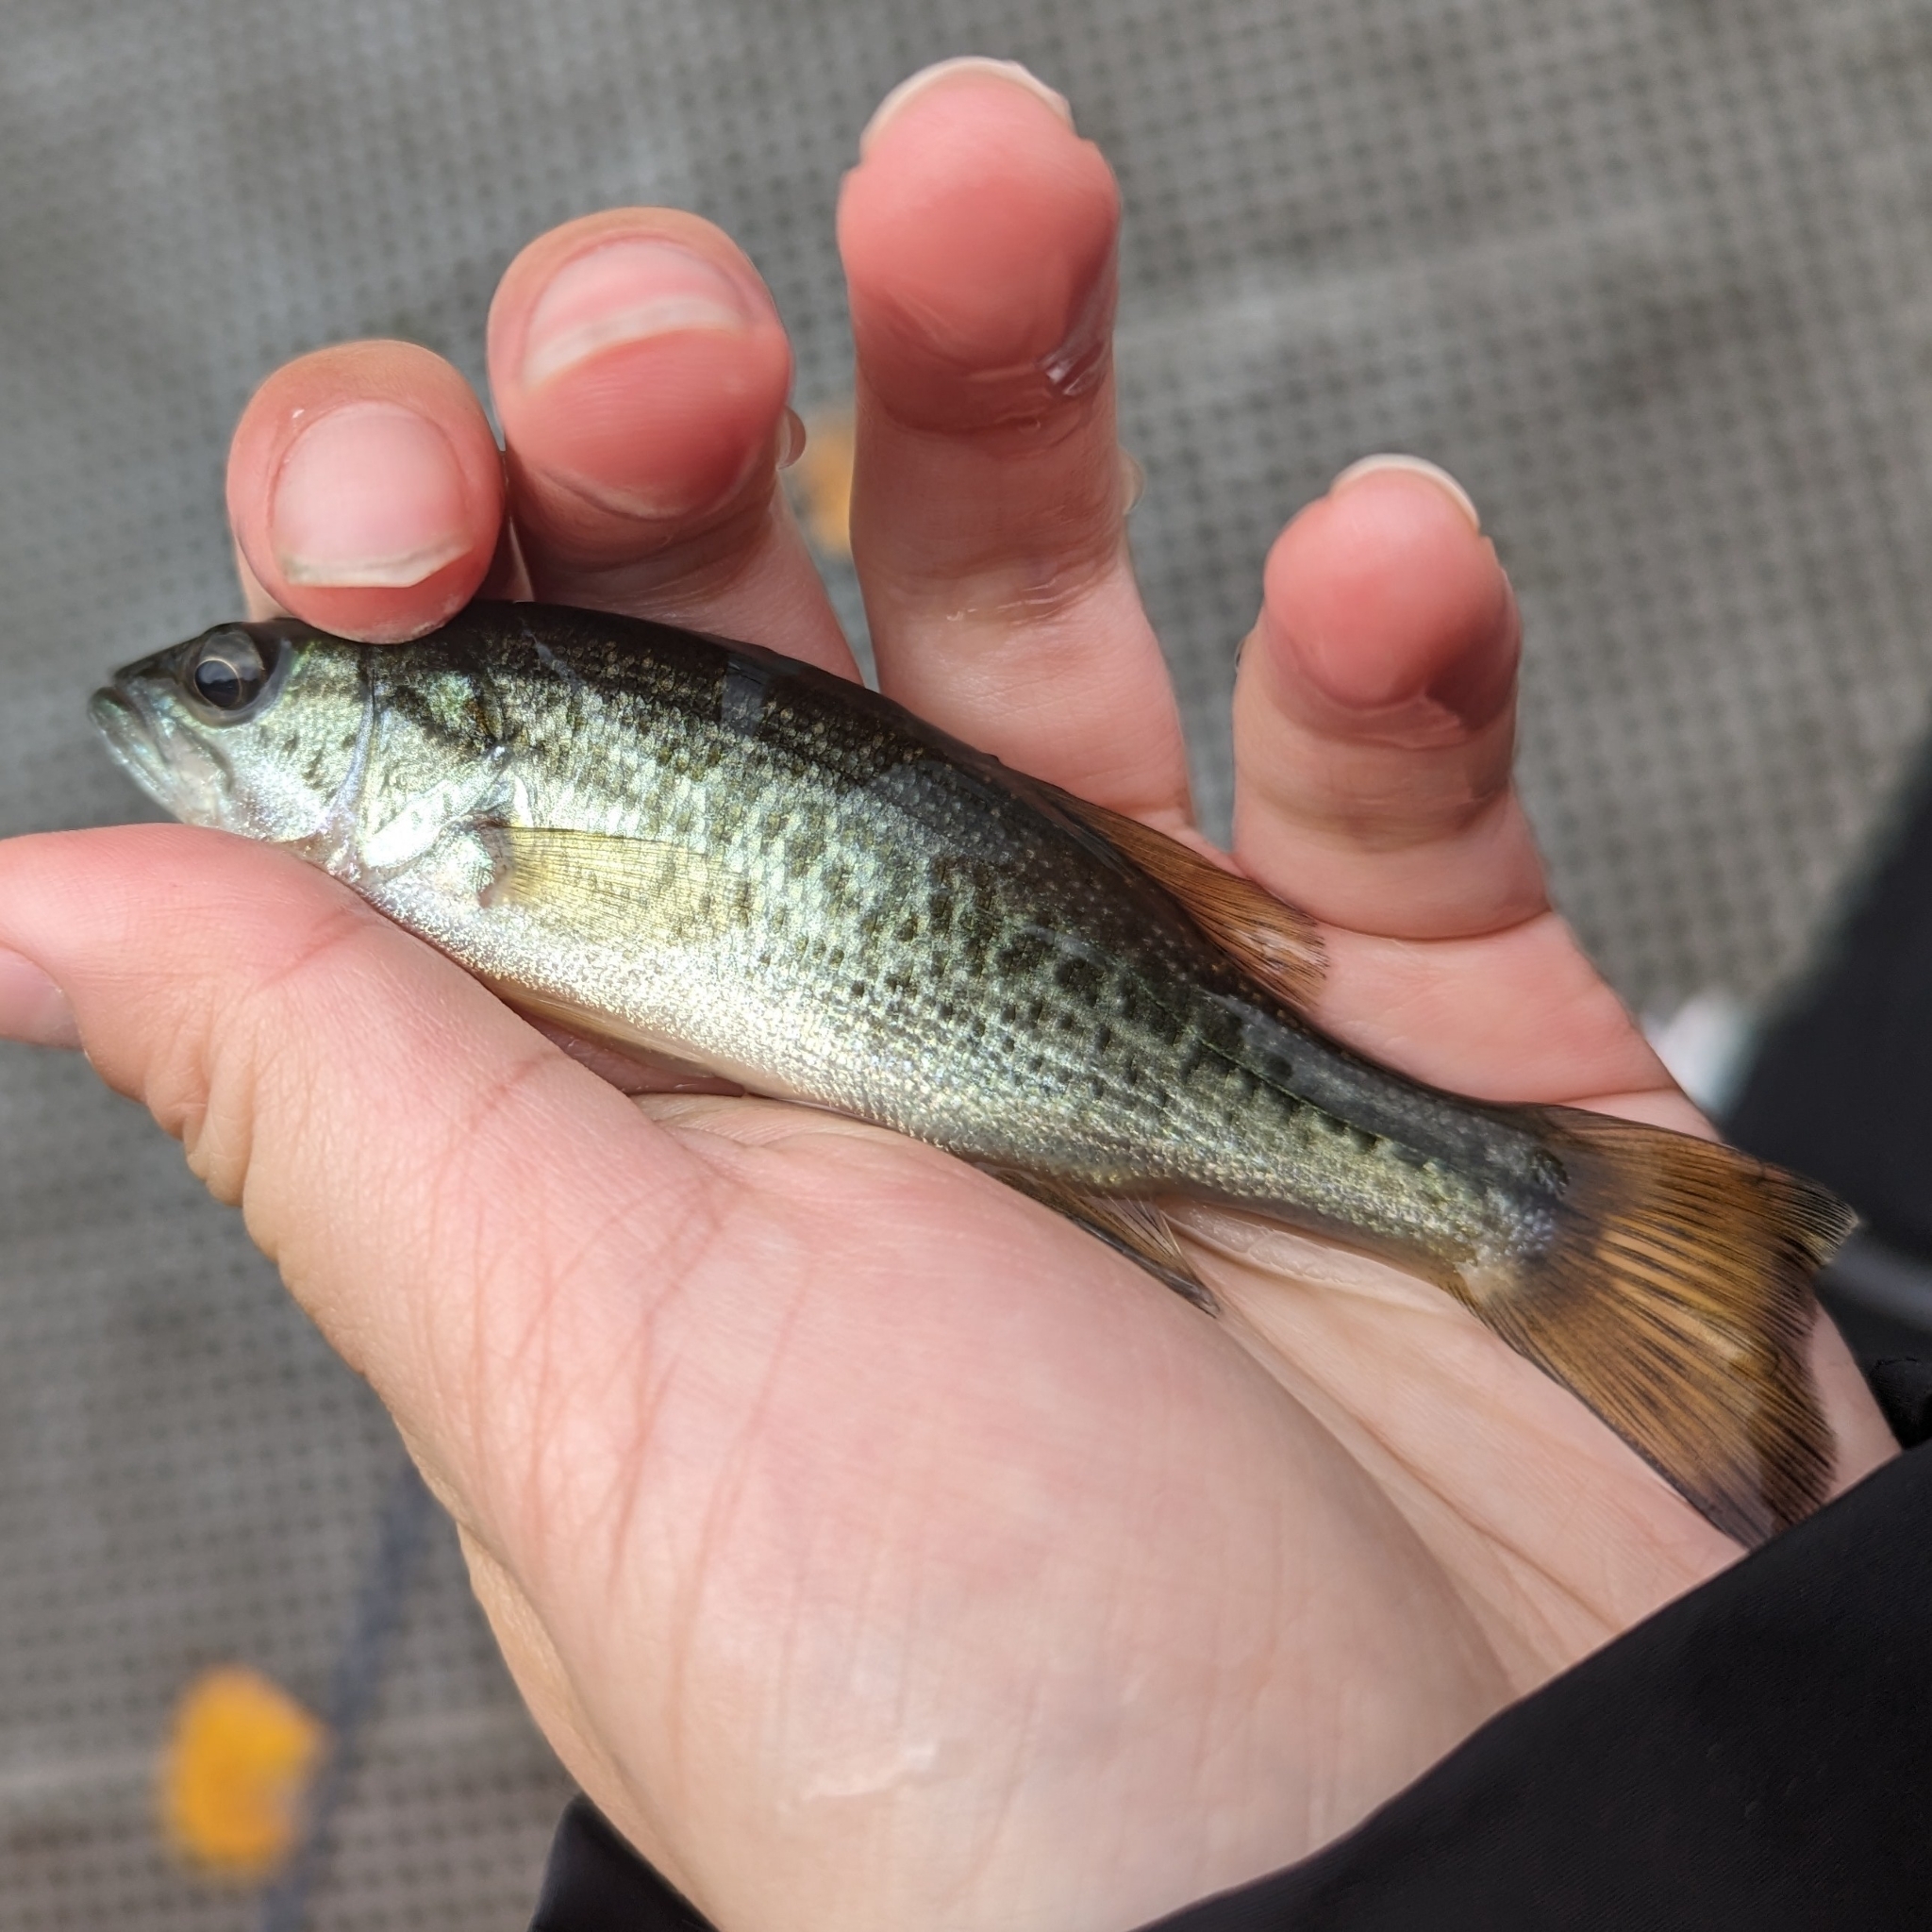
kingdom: Animalia
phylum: Chordata
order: Perciformes
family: Centrarchidae
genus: Micropterus
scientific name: Micropterus
